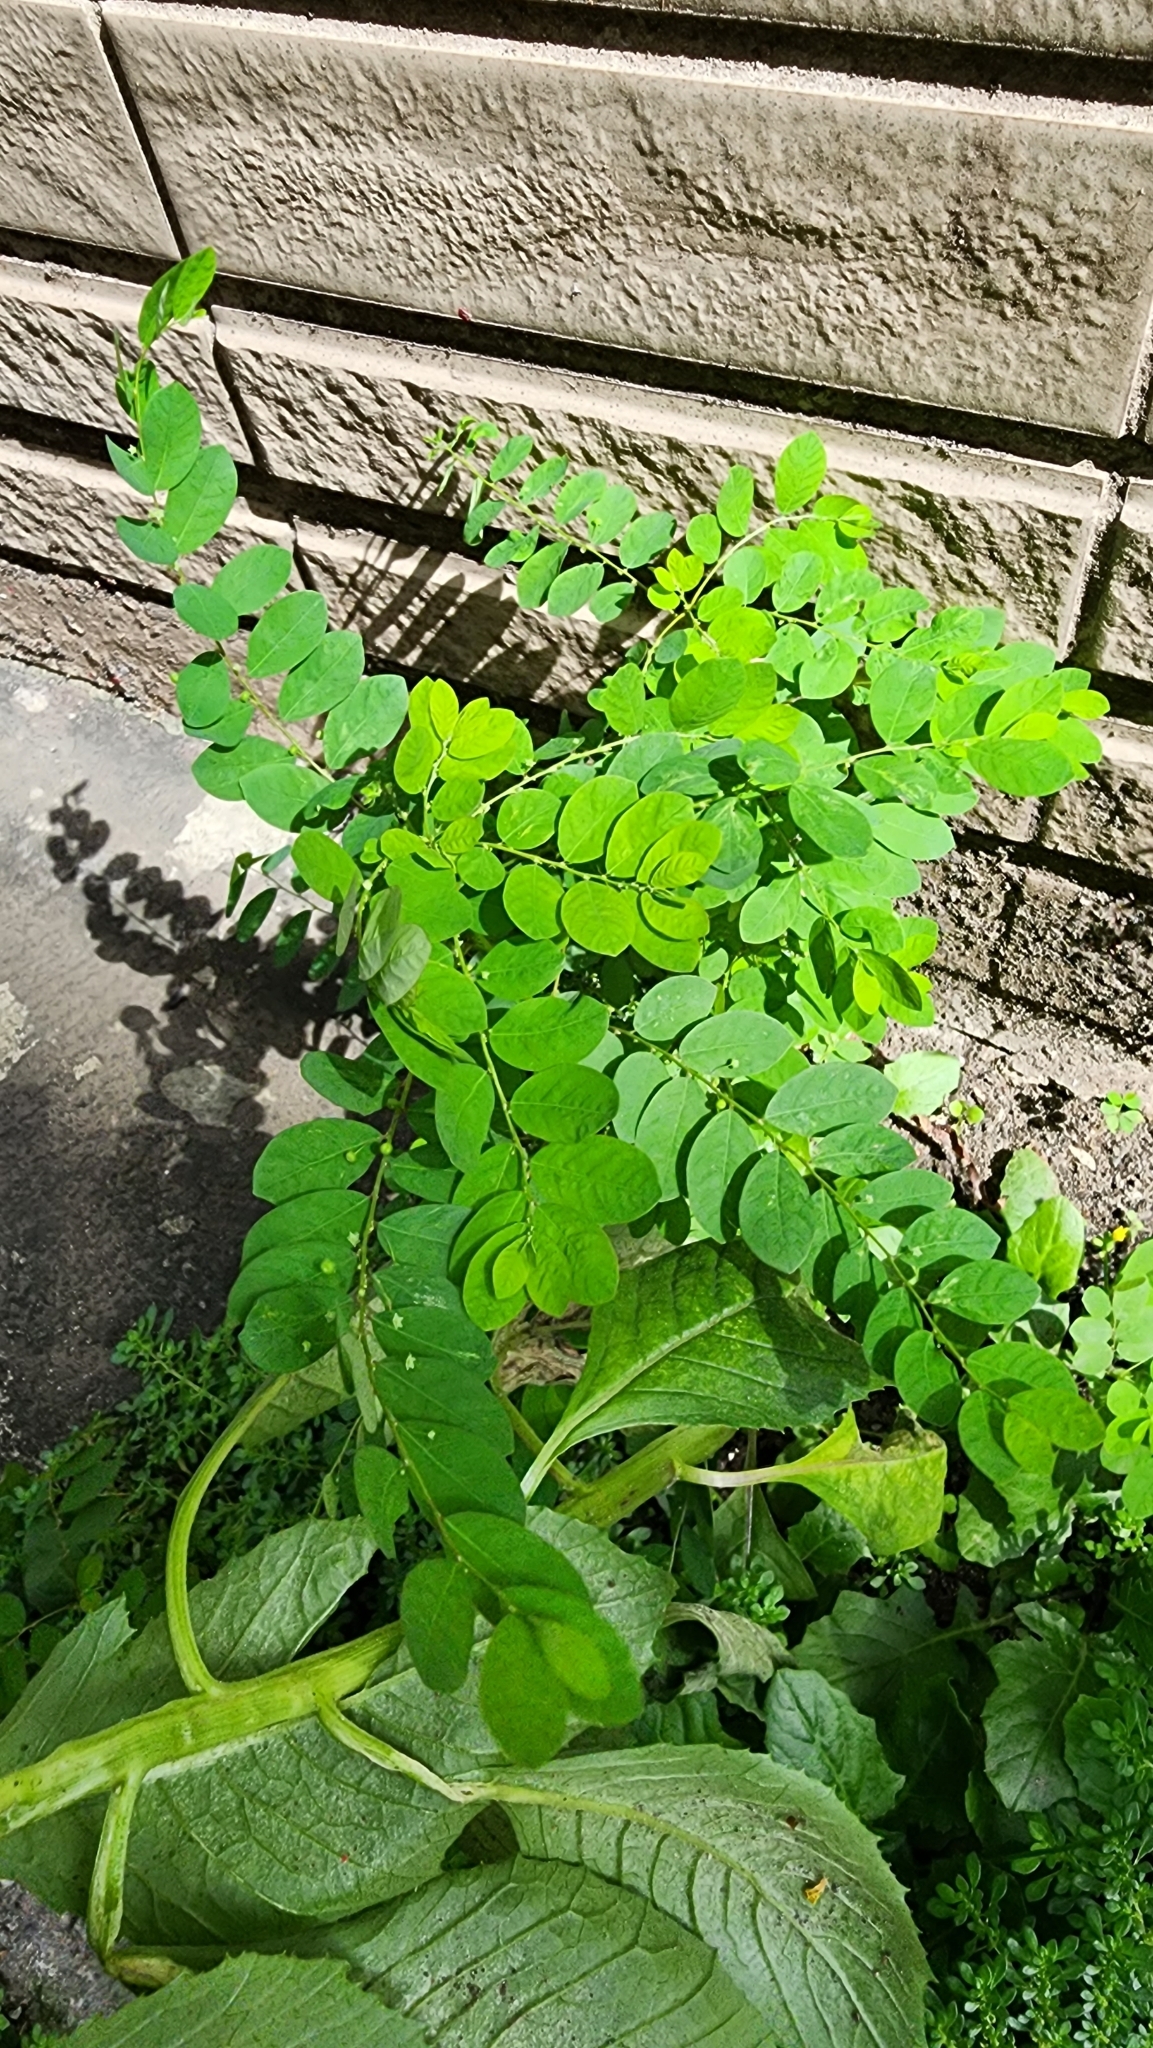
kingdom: Plantae
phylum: Tracheophyta
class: Magnoliopsida
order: Malpighiales
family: Phyllanthaceae
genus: Phyllanthus
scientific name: Phyllanthus tenellus
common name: Mascarene island leaf-flower
